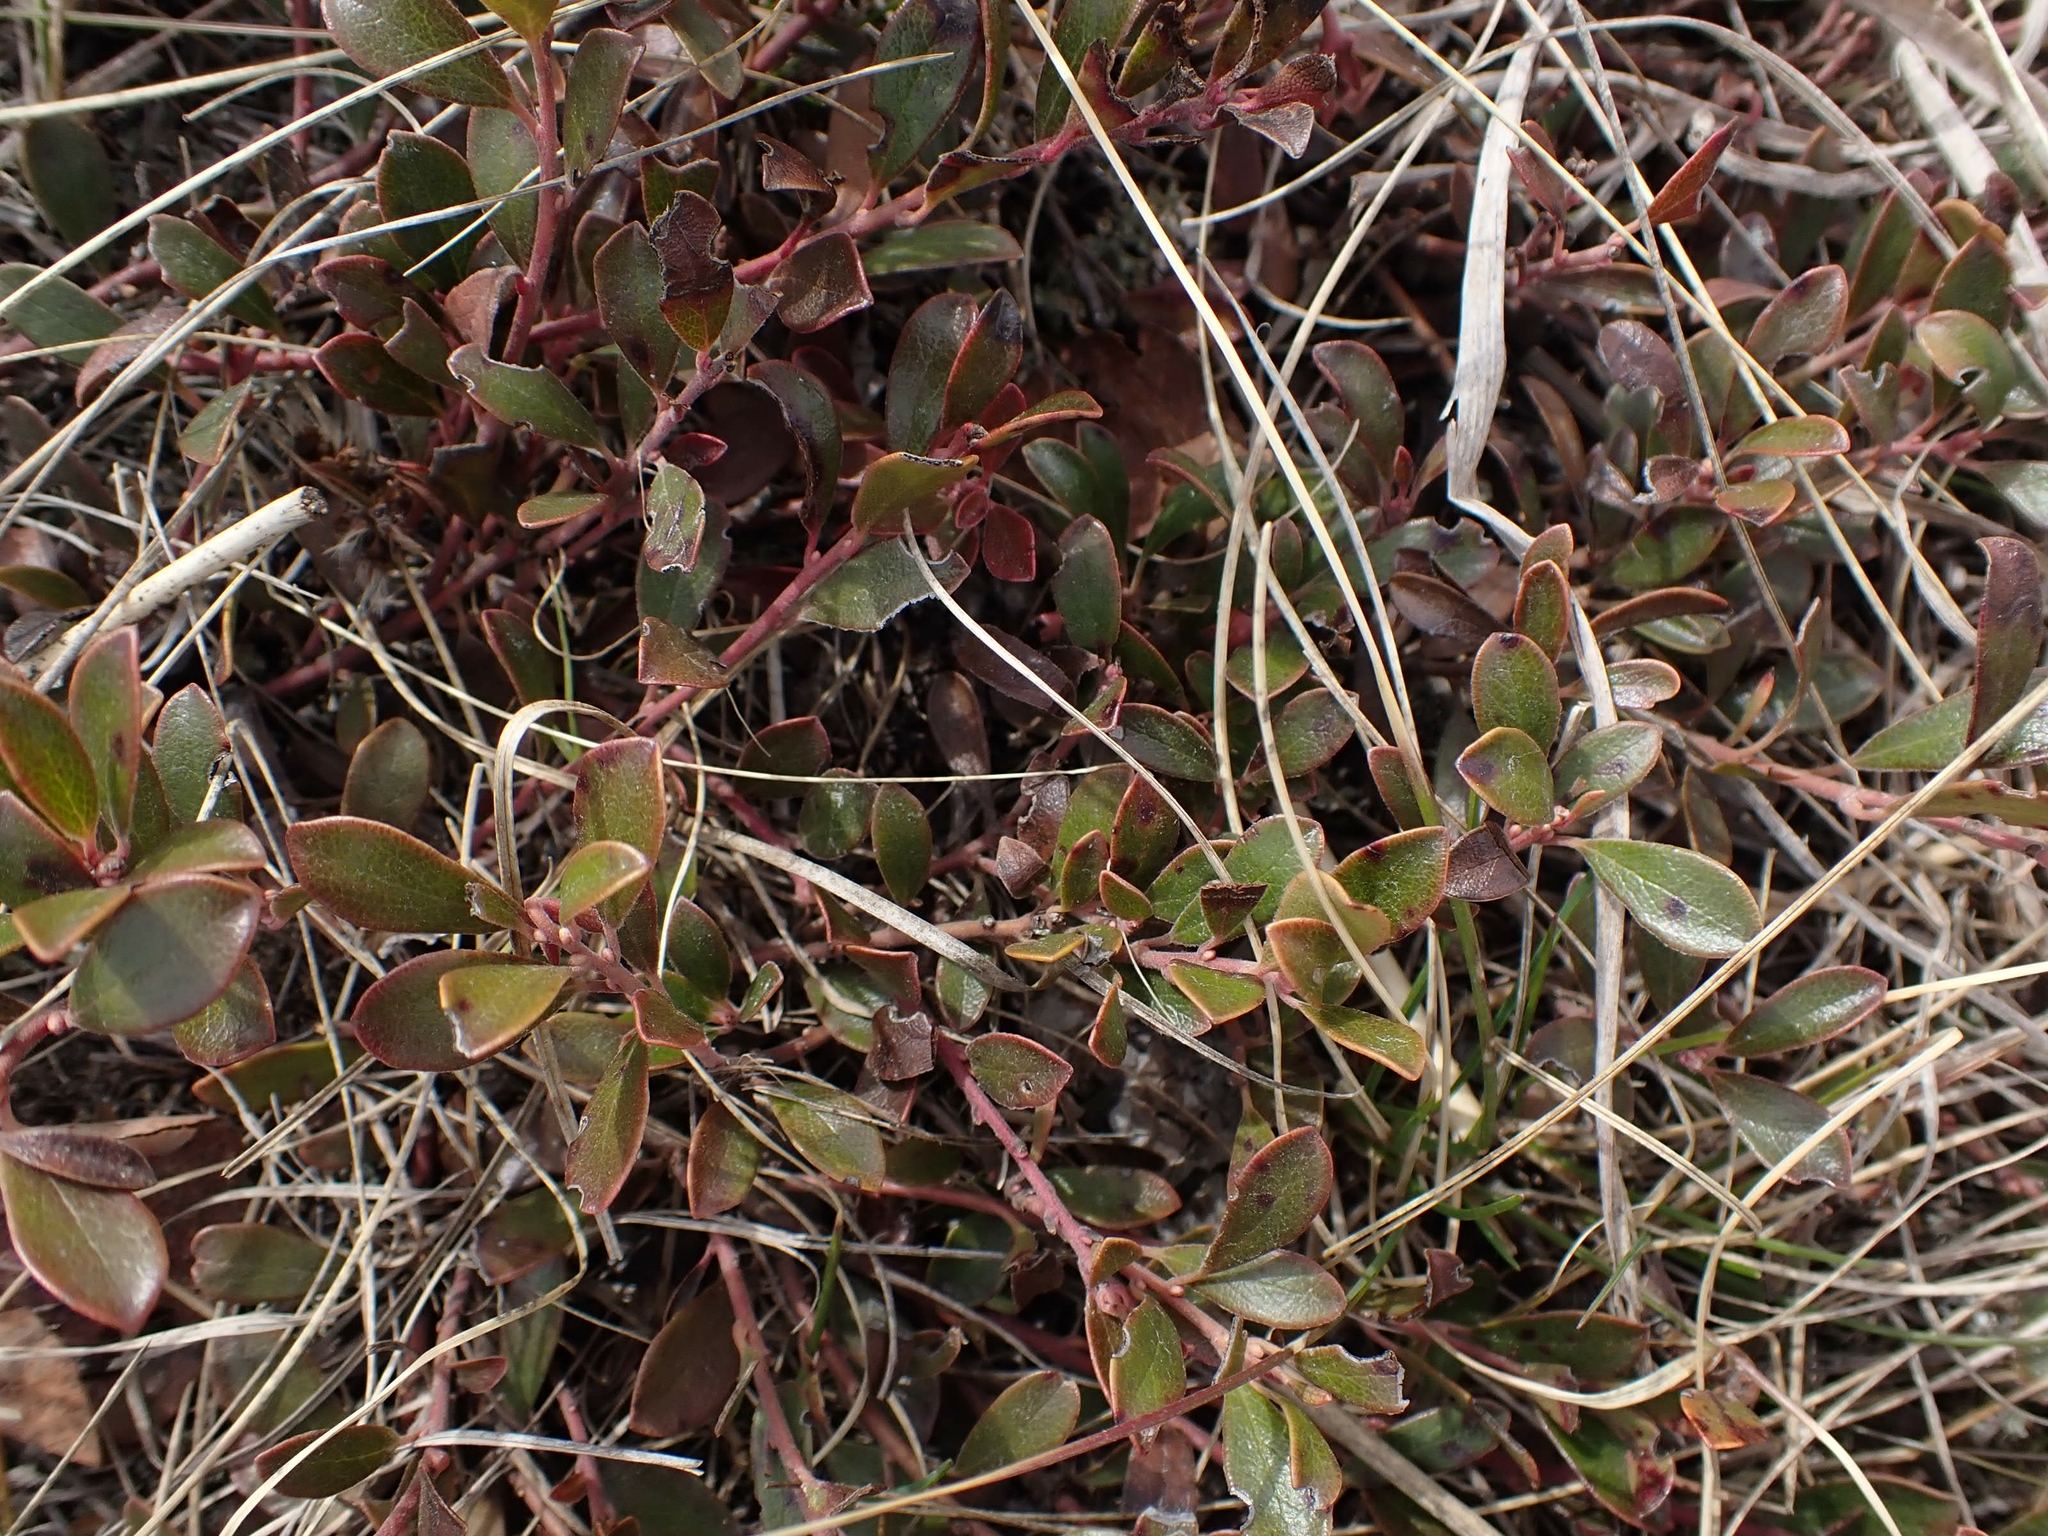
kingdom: Plantae
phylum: Tracheophyta
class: Magnoliopsida
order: Ericales
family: Ericaceae
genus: Arctostaphylos
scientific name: Arctostaphylos uva-ursi
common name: Bearberry
